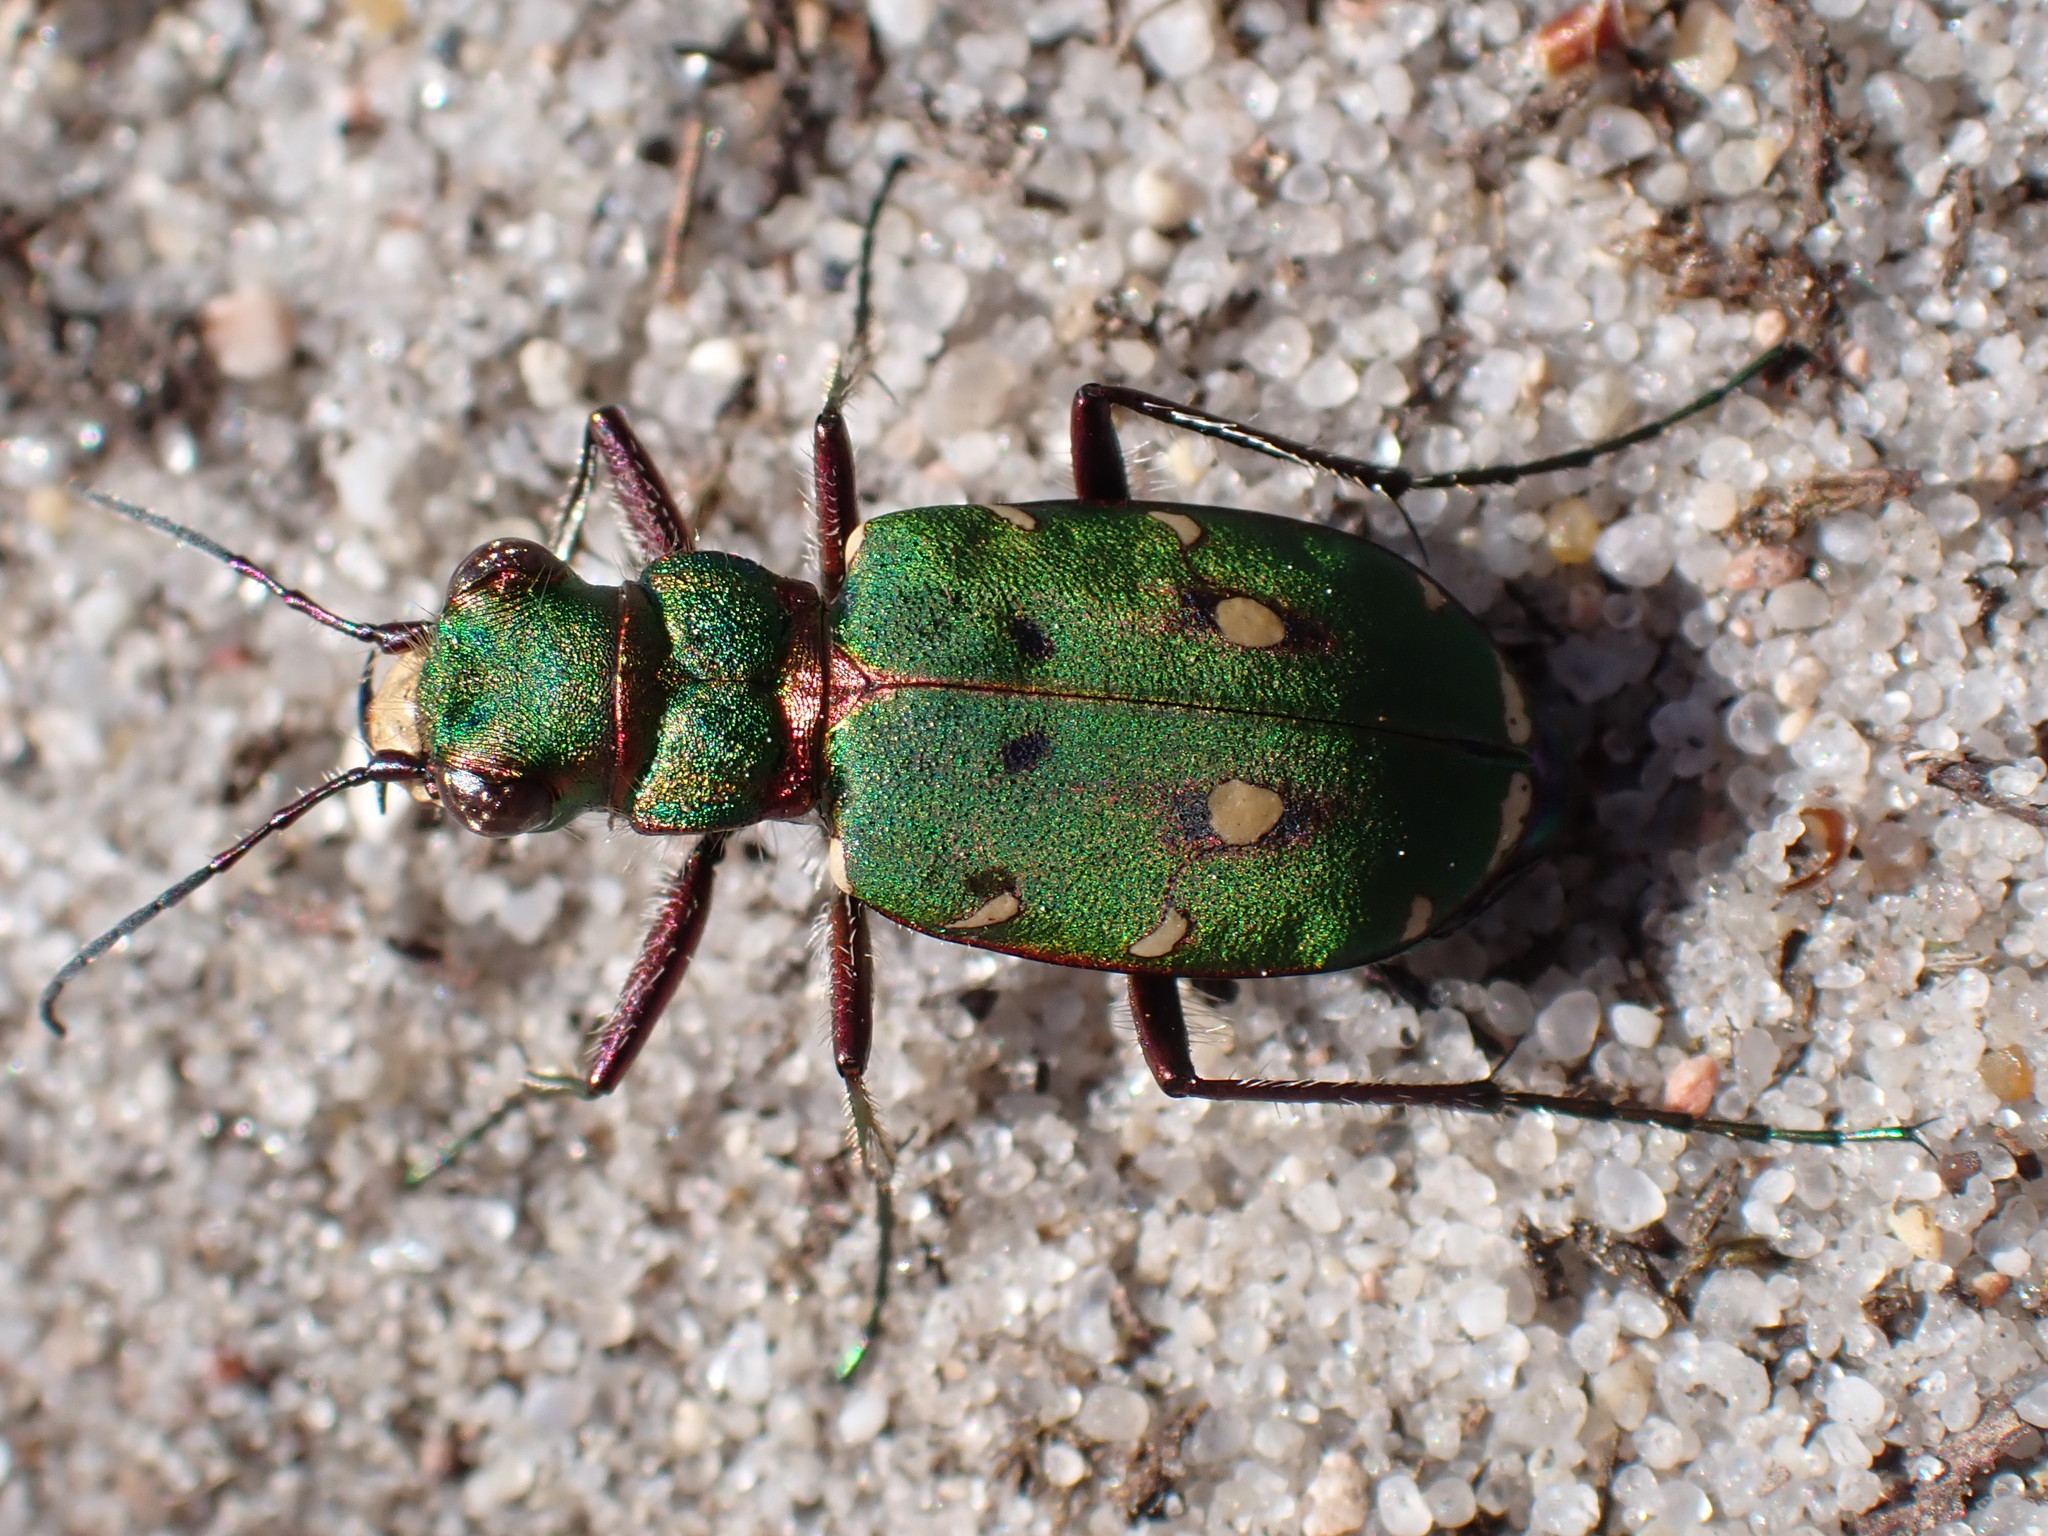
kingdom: Animalia
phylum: Arthropoda
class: Insecta
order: Coleoptera
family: Carabidae
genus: Cicindela
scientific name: Cicindela campestris
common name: Common tiger beetle
